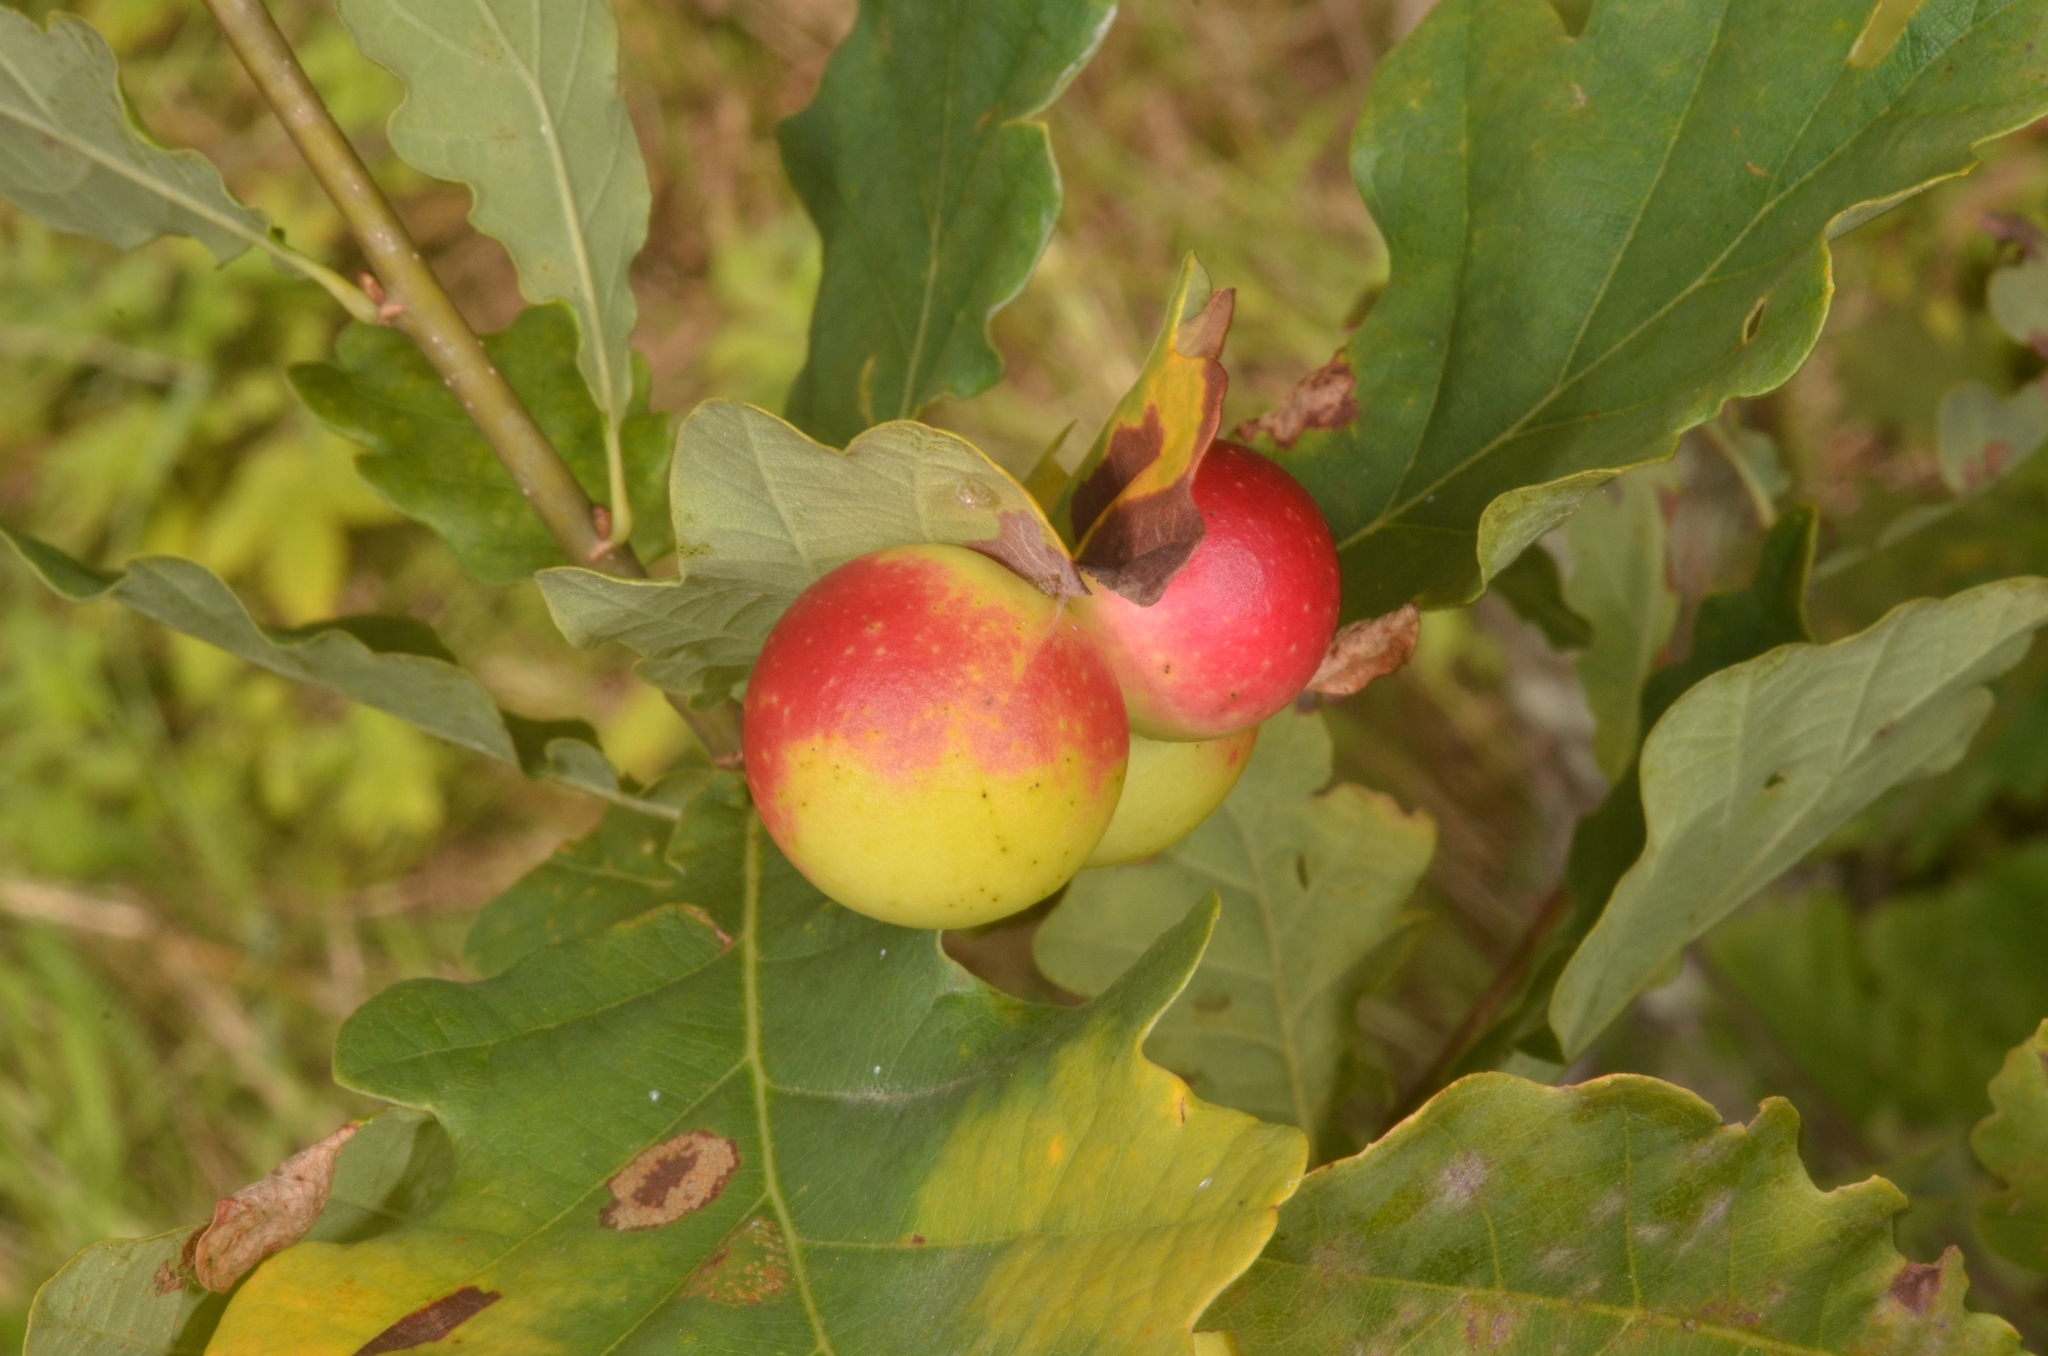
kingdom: Animalia
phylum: Arthropoda
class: Insecta
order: Hymenoptera
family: Cynipidae
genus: Cynips
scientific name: Cynips quercusfolii
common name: Cherry gall
